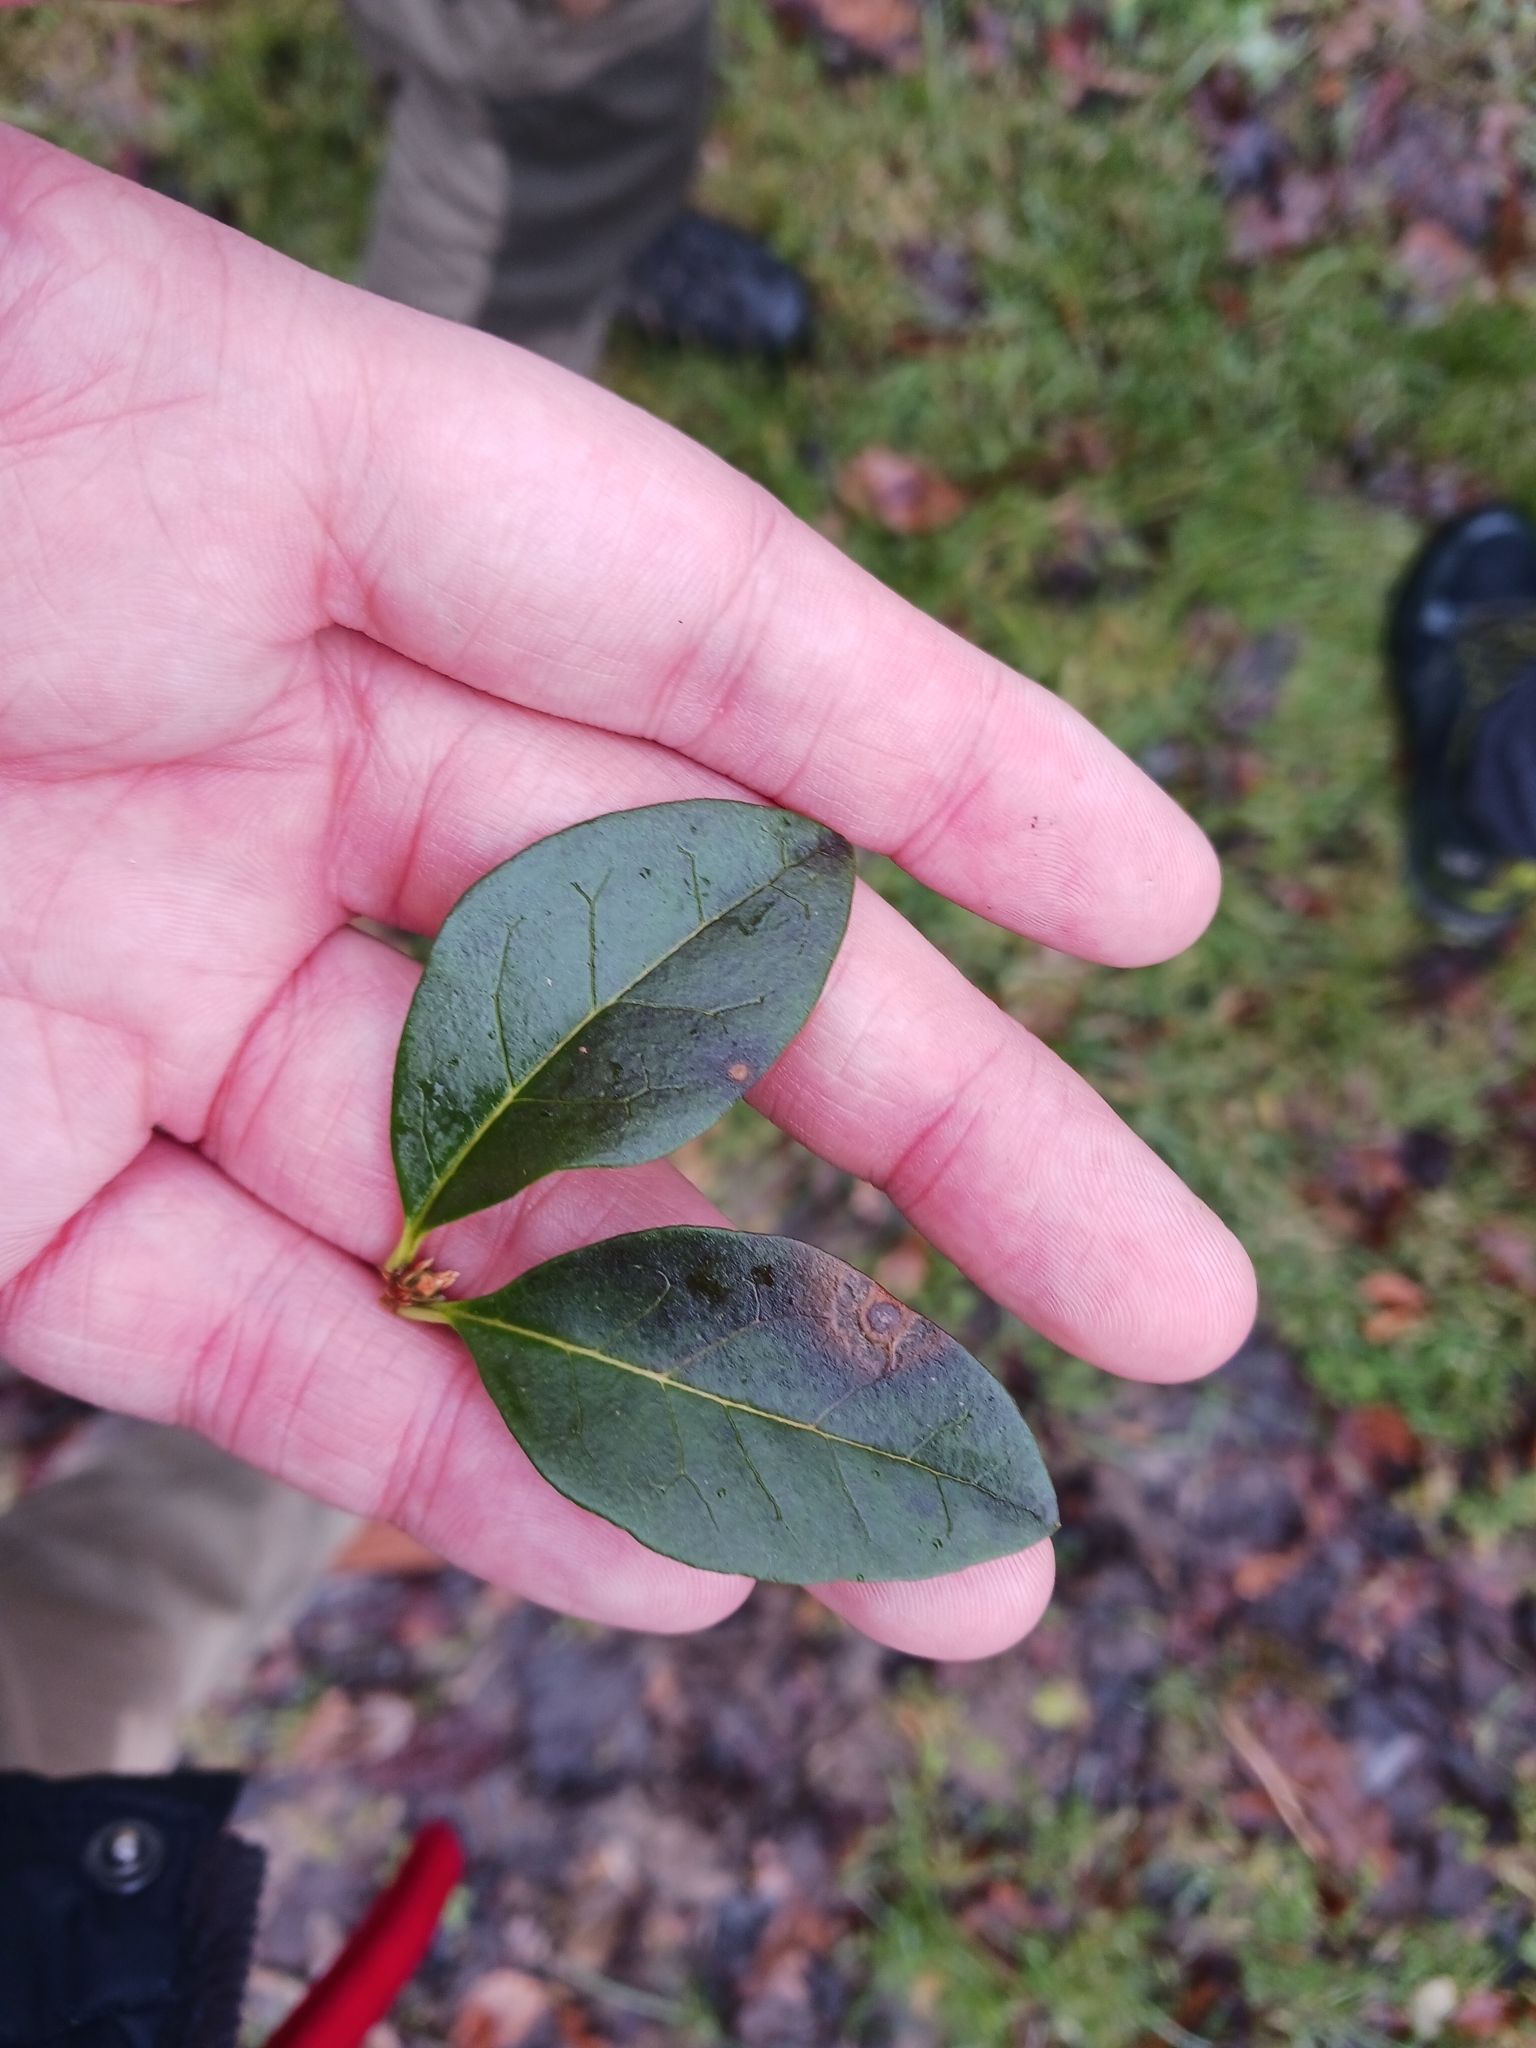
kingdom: Fungi
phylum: Ascomycota
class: Leotiomycetes
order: Helotiales
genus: Thedgonia
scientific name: Thedgonia ligustrina
